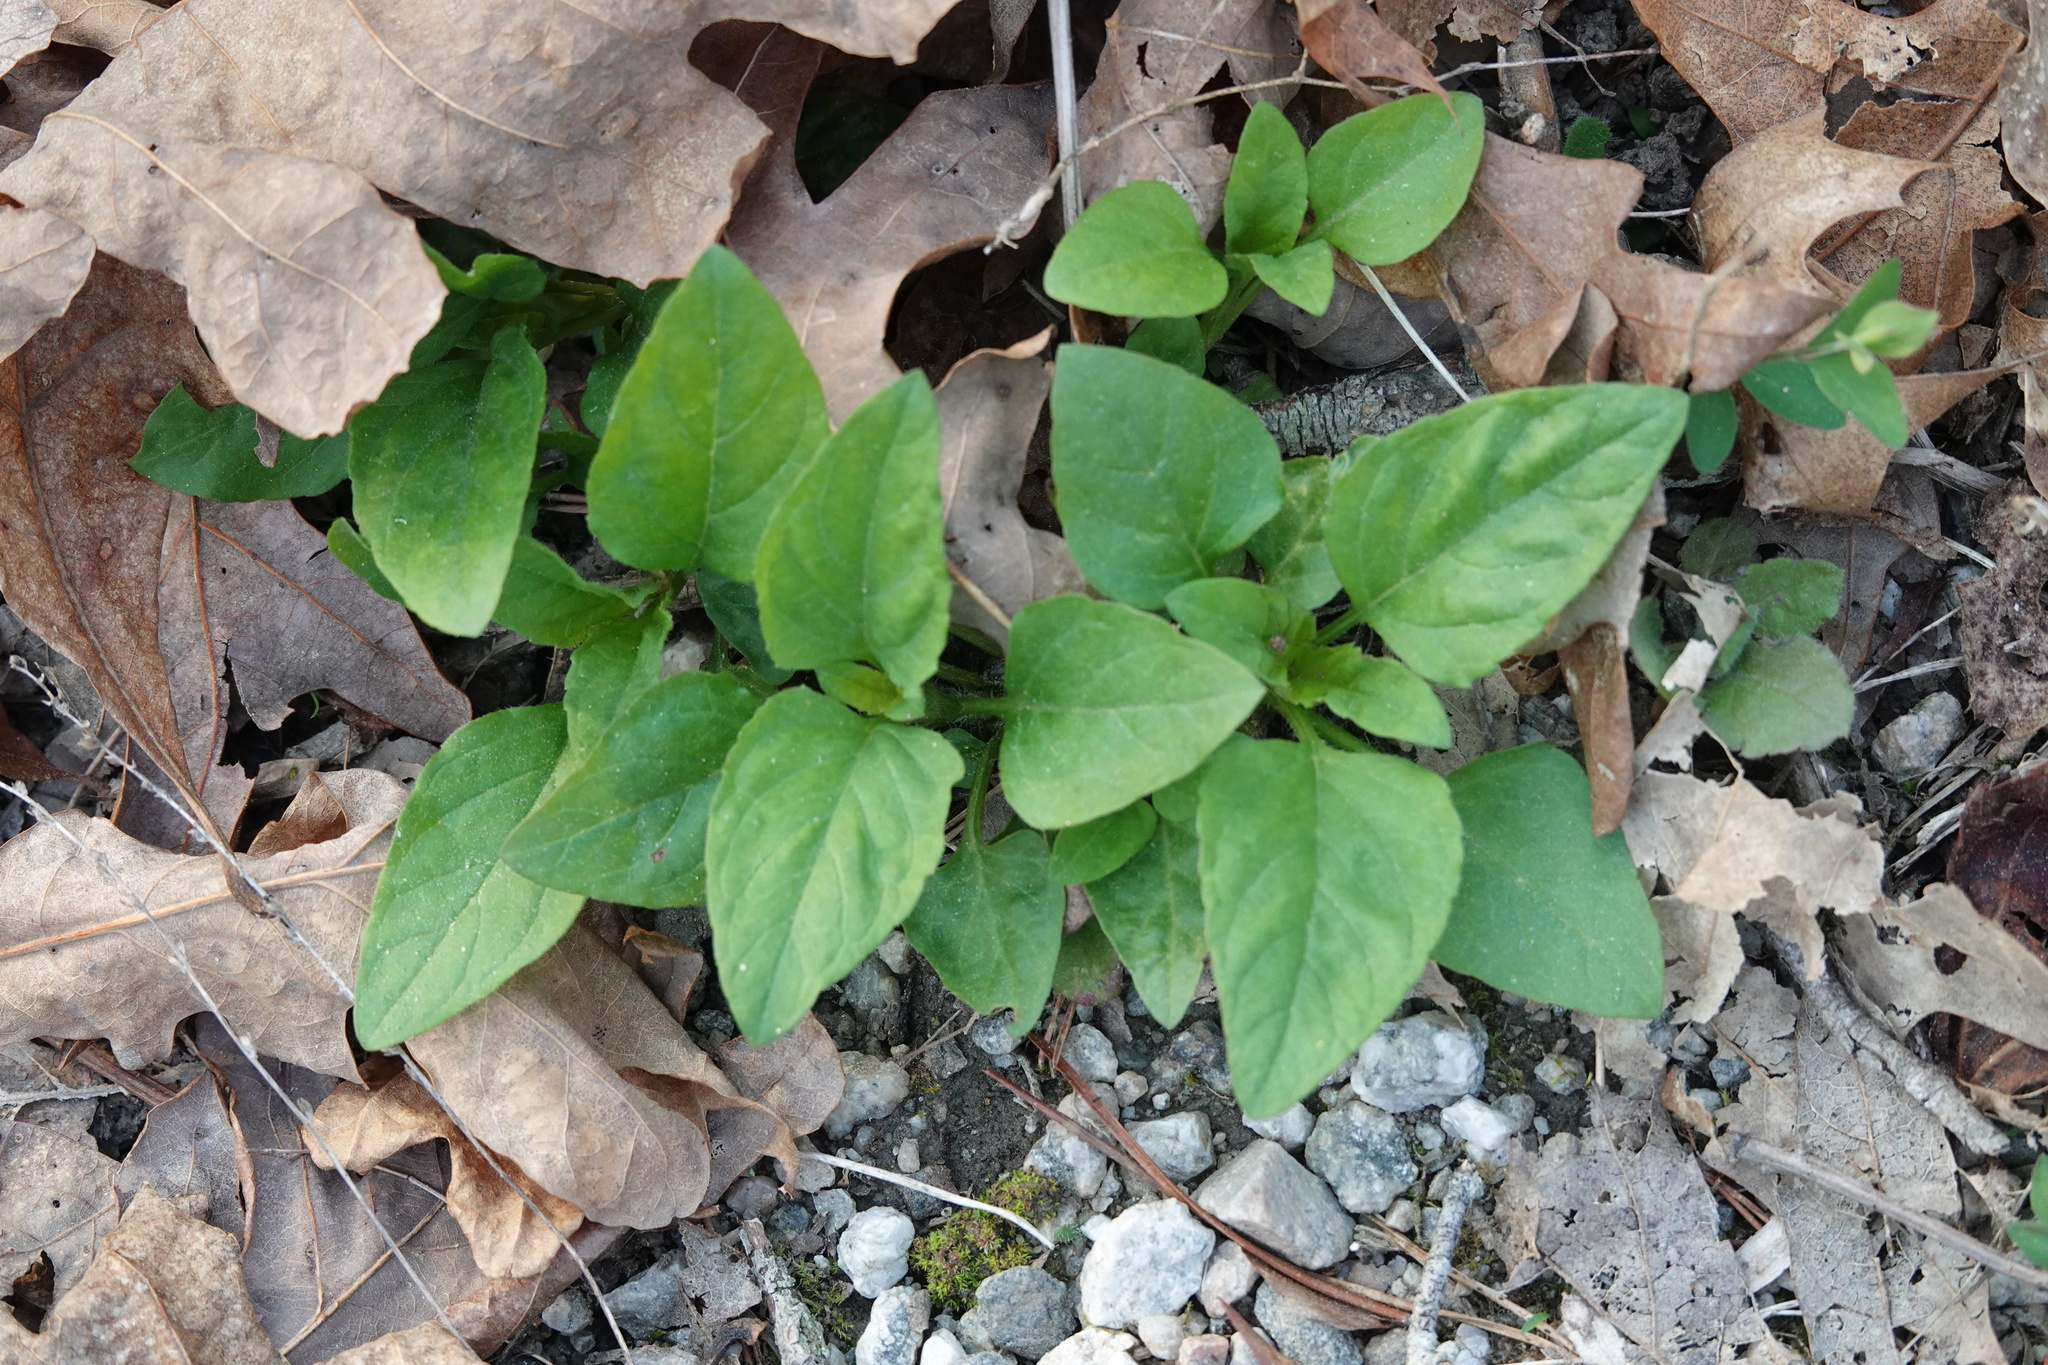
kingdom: Plantae
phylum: Tracheophyta
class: Magnoliopsida
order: Lamiales
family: Lamiaceae
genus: Prunella
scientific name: Prunella vulgaris
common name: Heal-all
